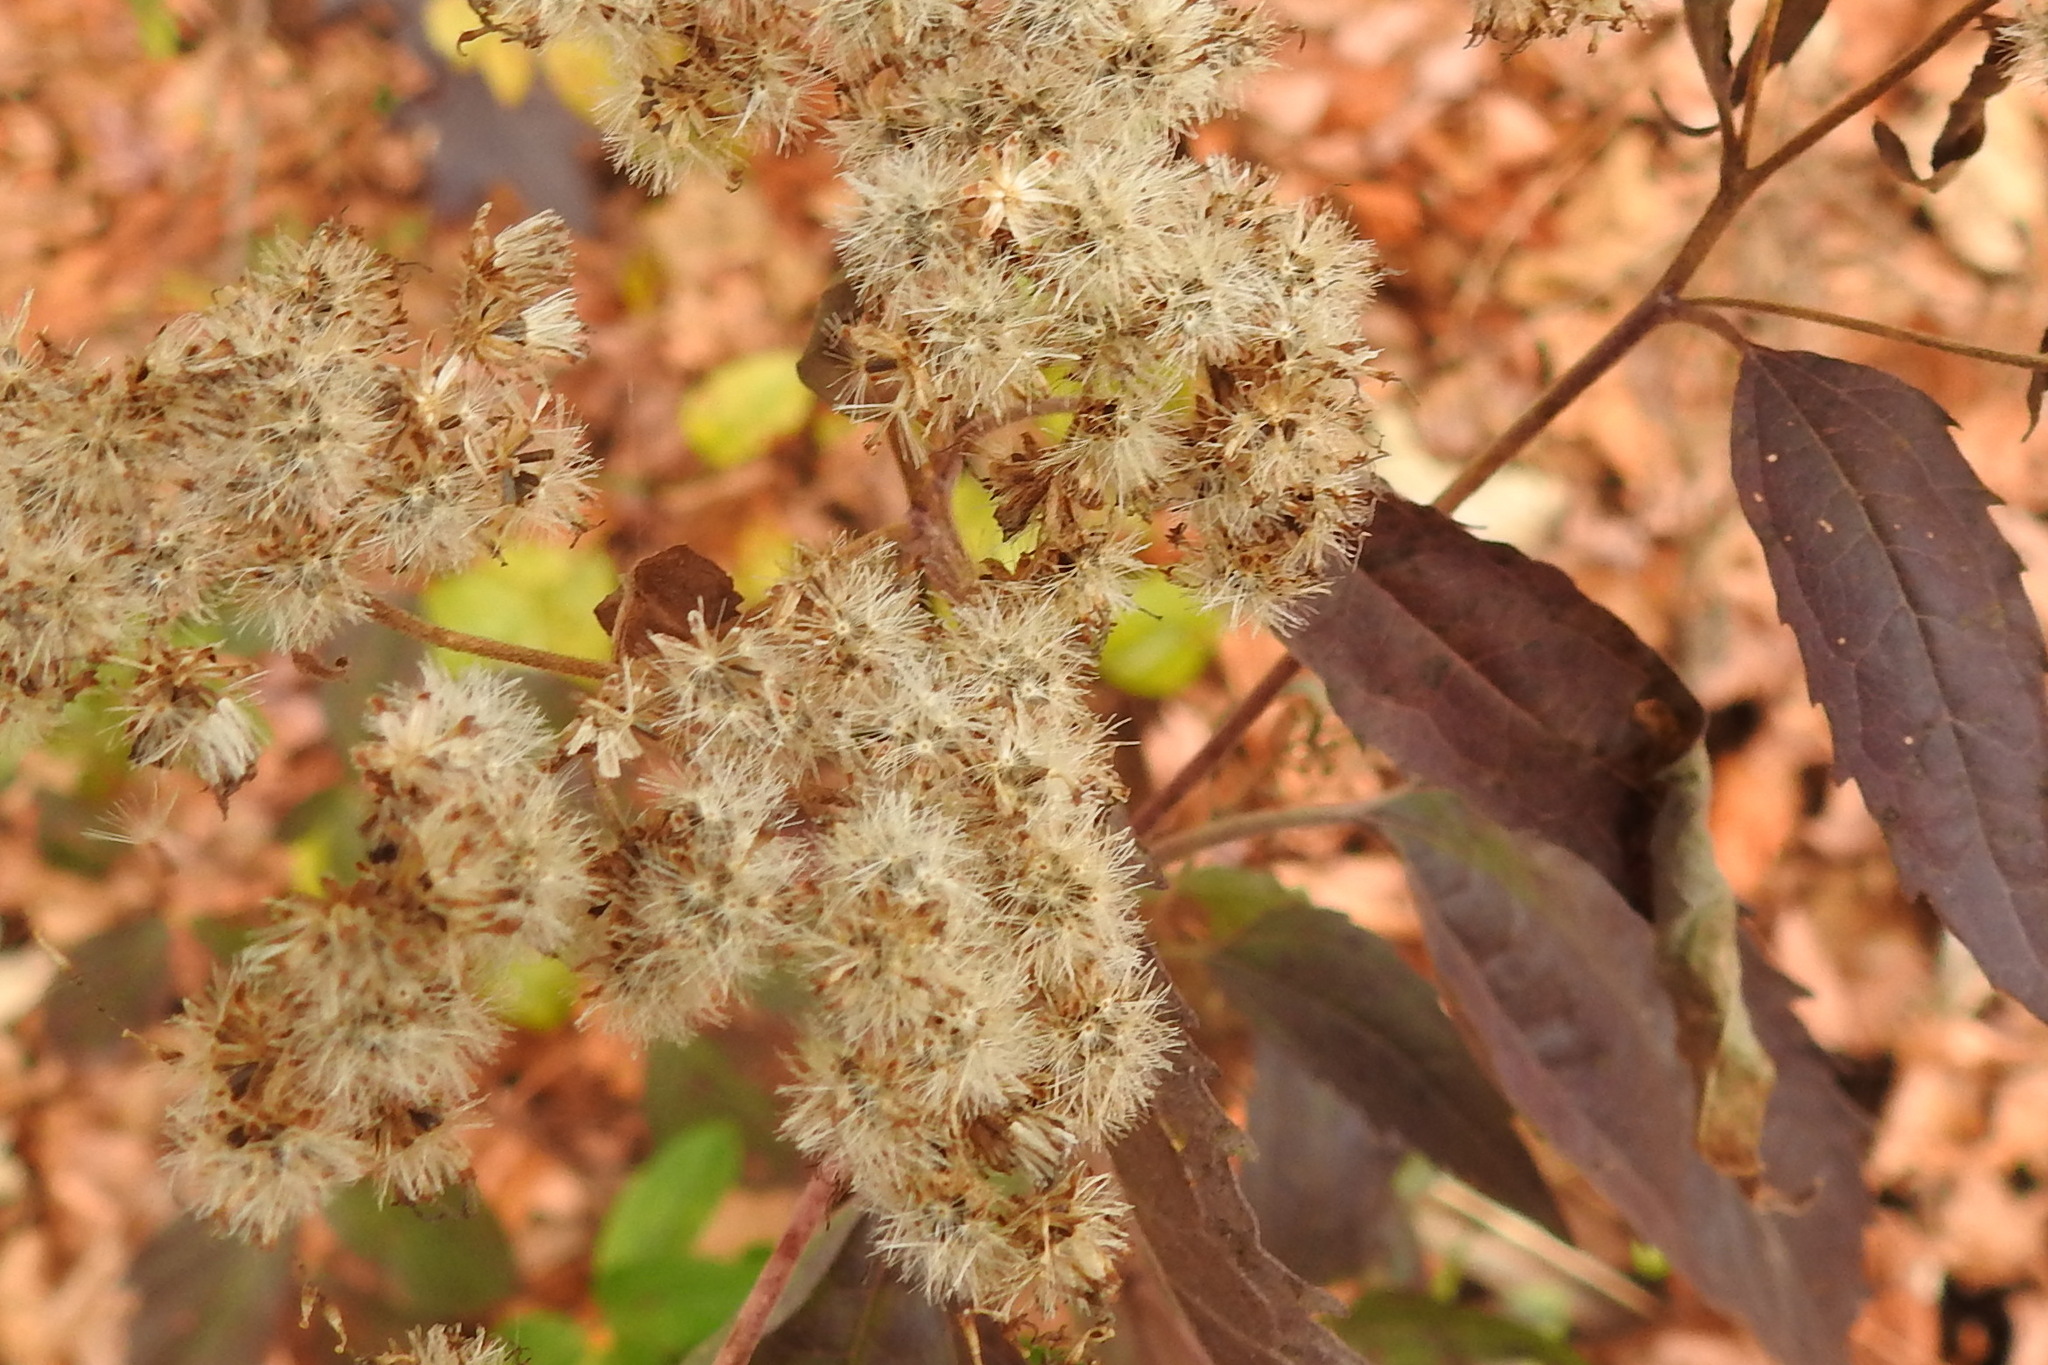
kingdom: Plantae
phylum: Tracheophyta
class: Magnoliopsida
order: Asterales
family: Asteraceae
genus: Eupatorium
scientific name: Eupatorium serotinum
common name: Late boneset
